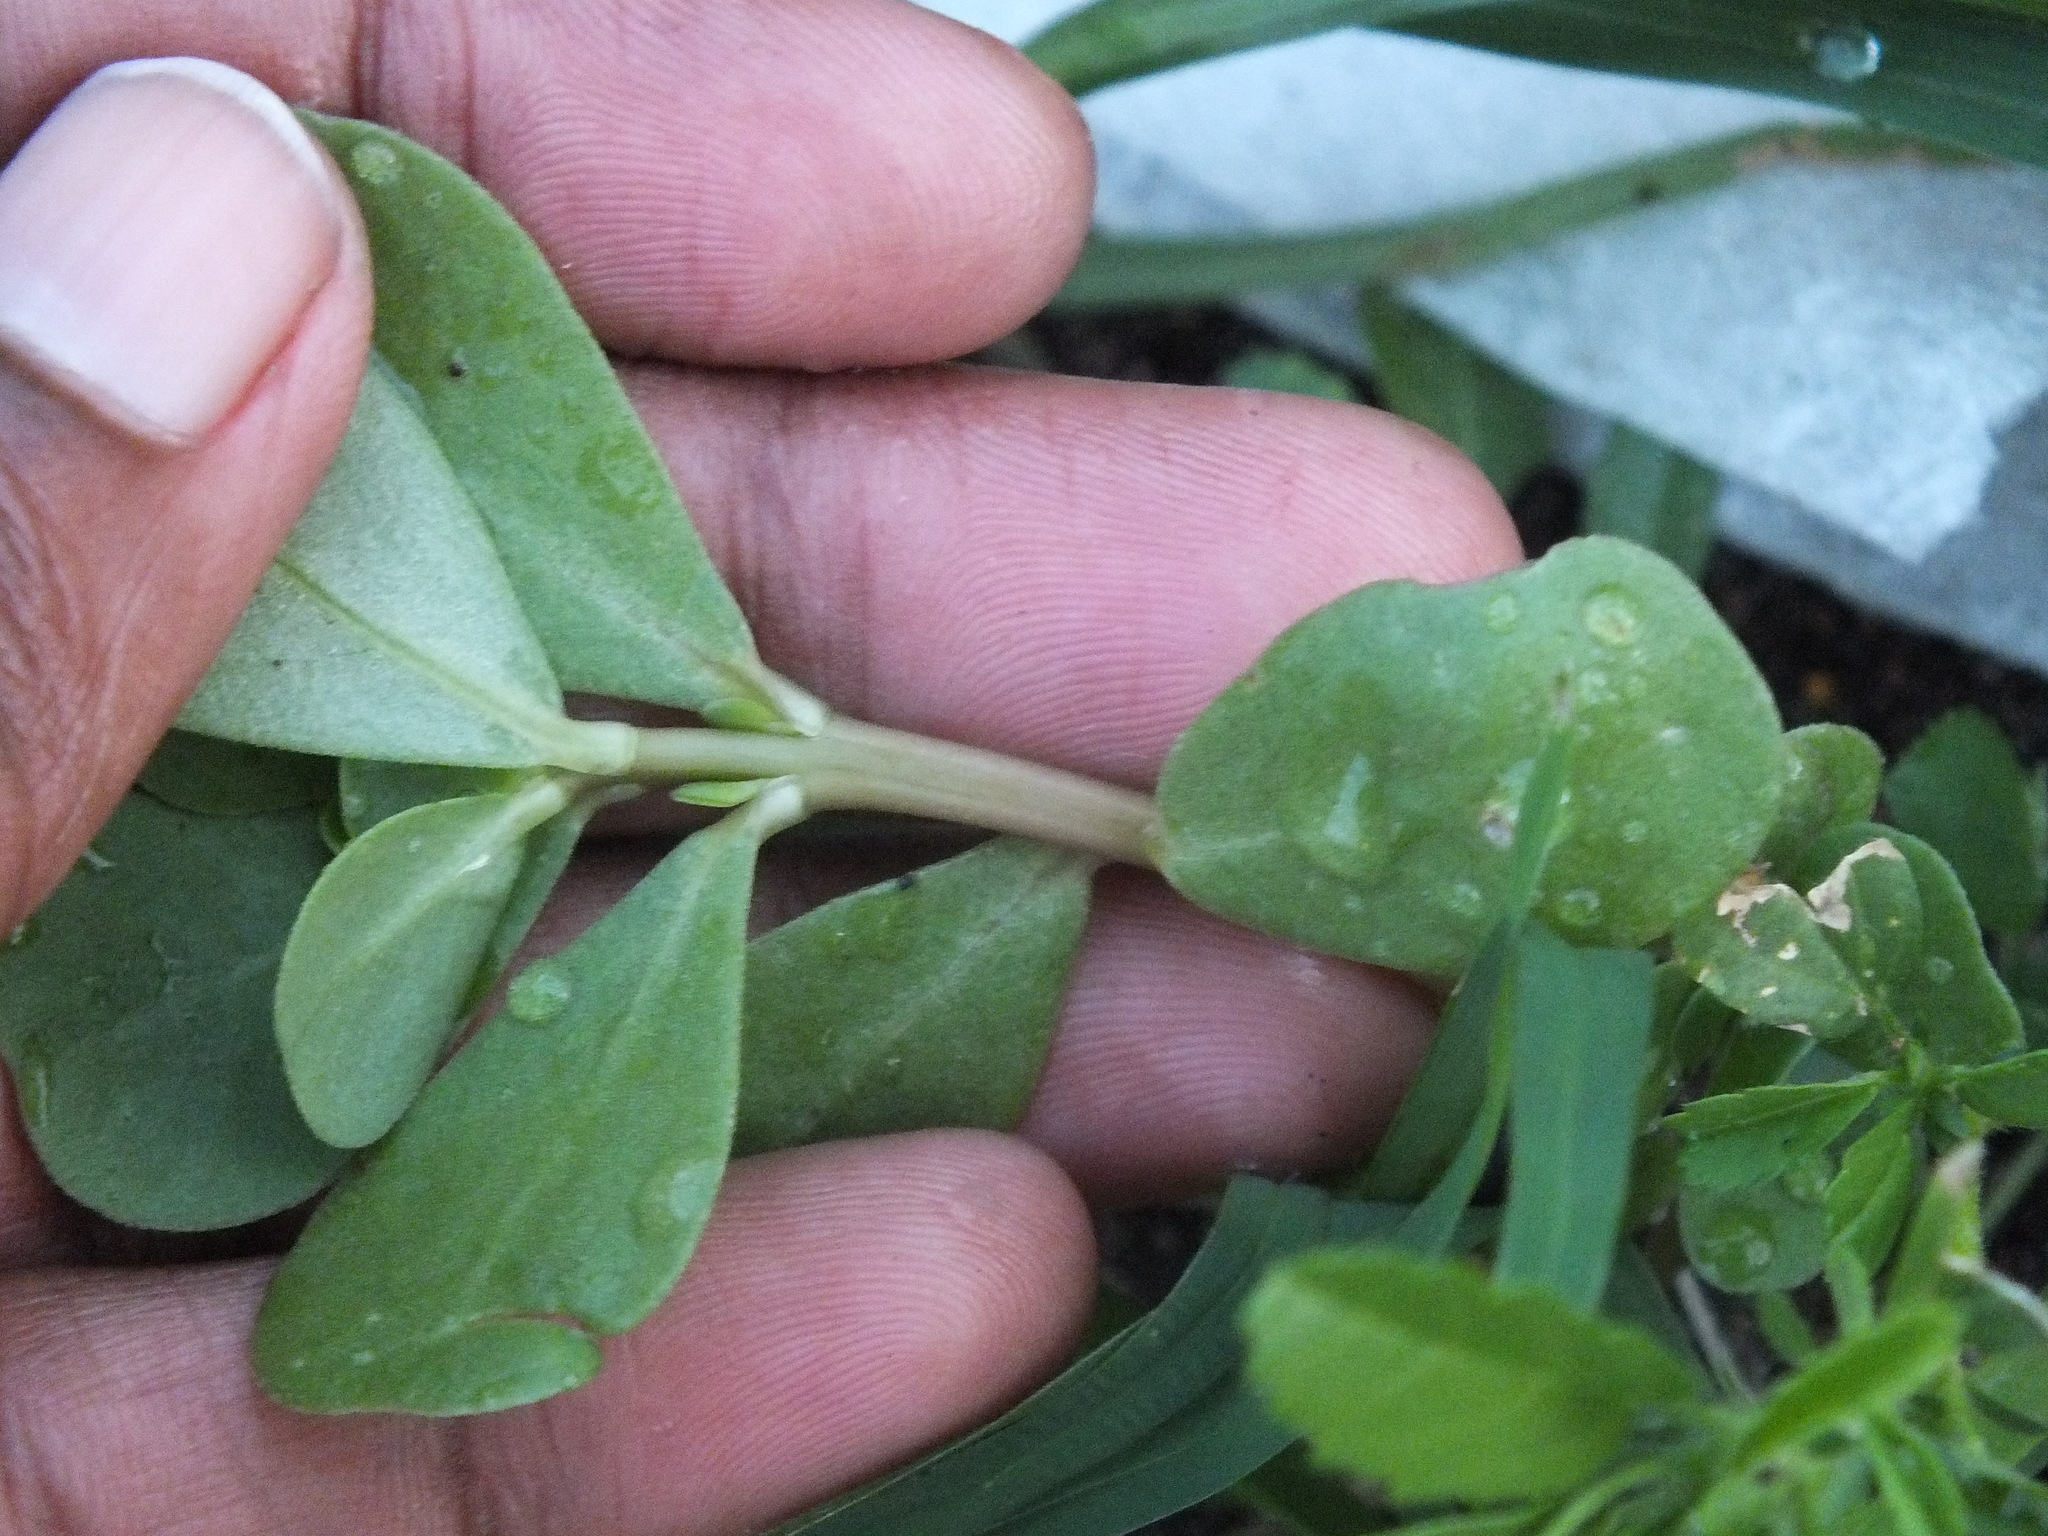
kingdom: Plantae
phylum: Tracheophyta
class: Magnoliopsida
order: Caryophyllales
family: Portulacaceae
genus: Portulaca
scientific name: Portulaca oleracea
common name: Common purslane
